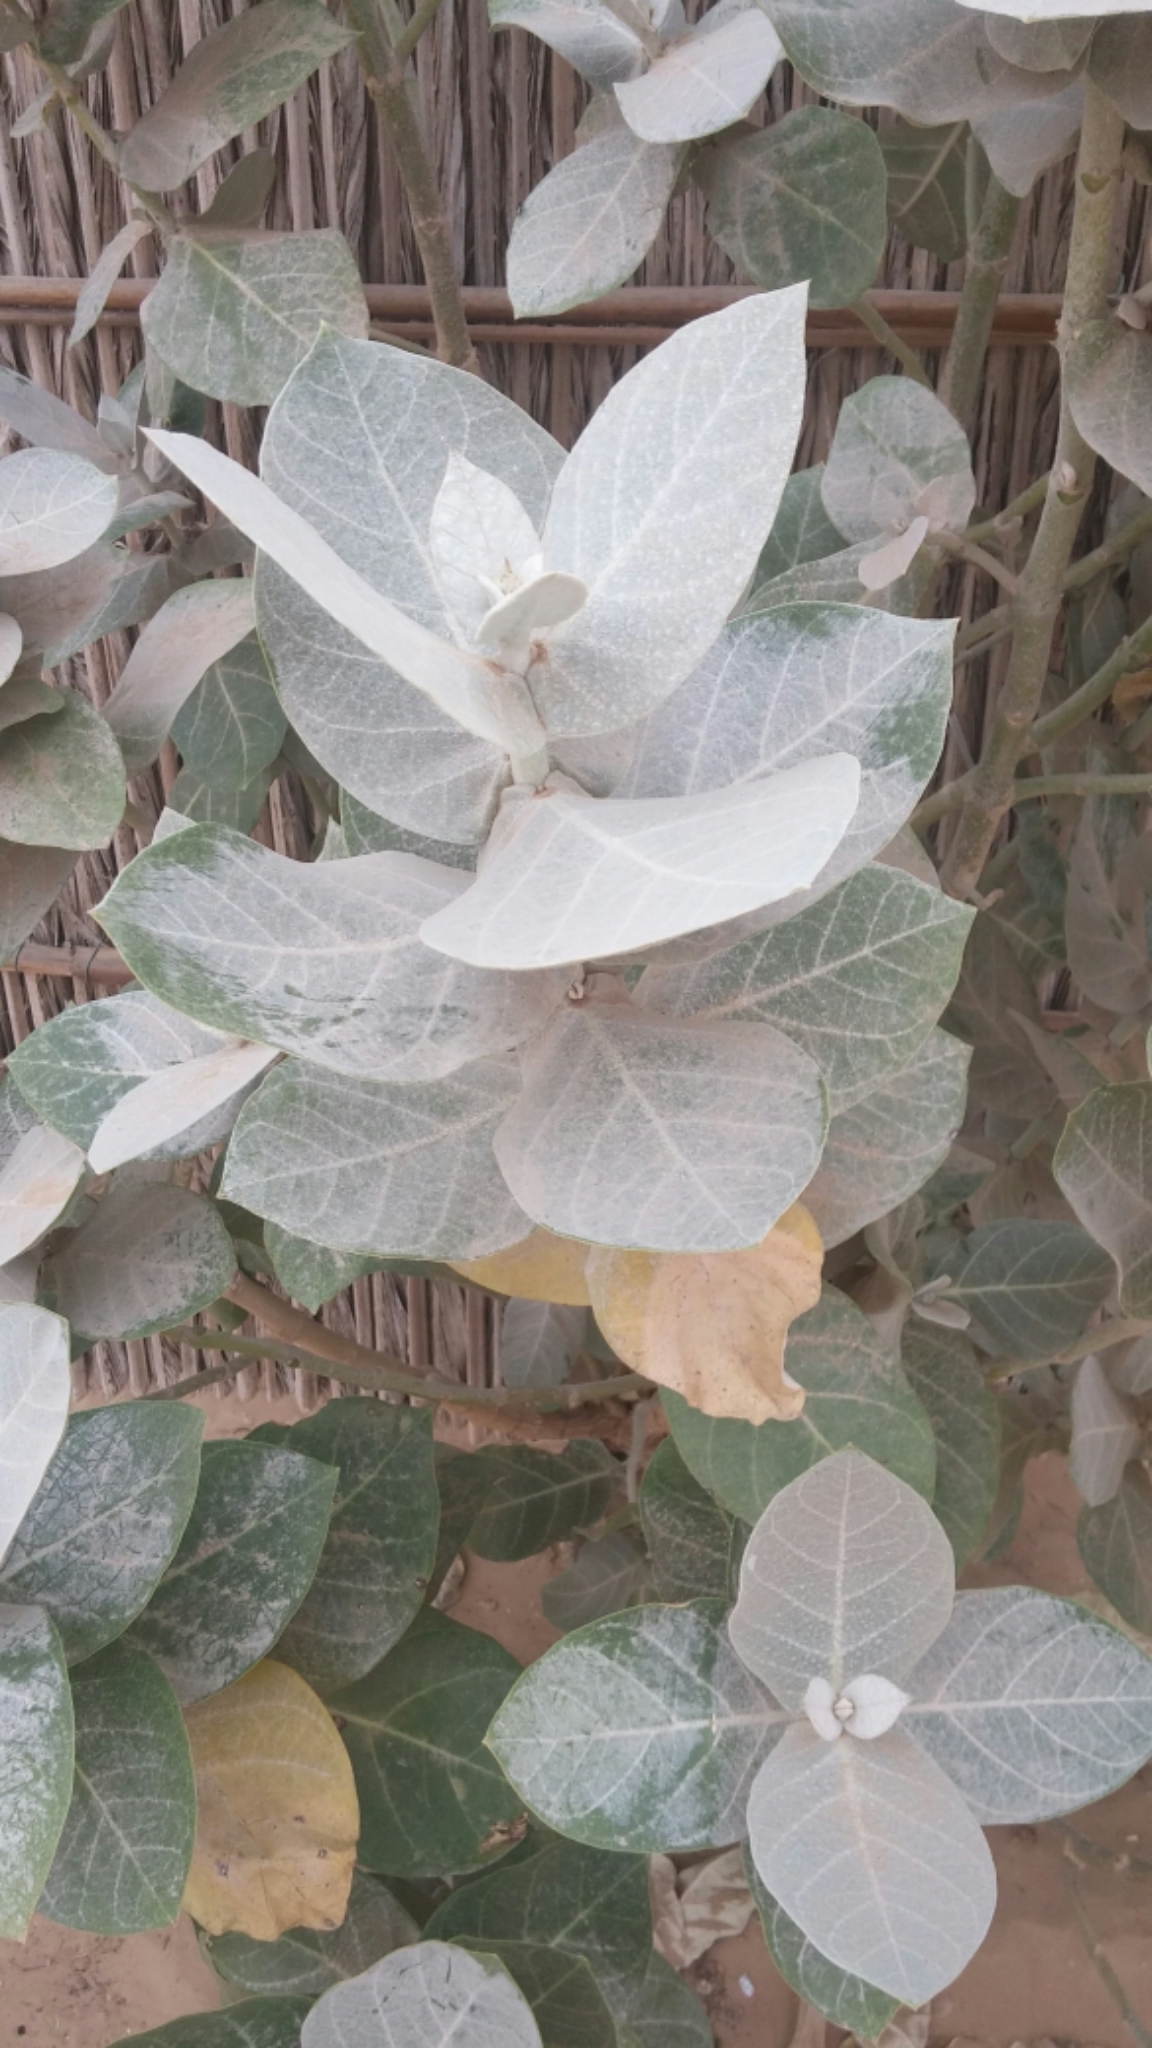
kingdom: Plantae
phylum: Tracheophyta
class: Magnoliopsida
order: Gentianales
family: Apocynaceae
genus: Calotropis
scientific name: Calotropis procera
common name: Roostertree
